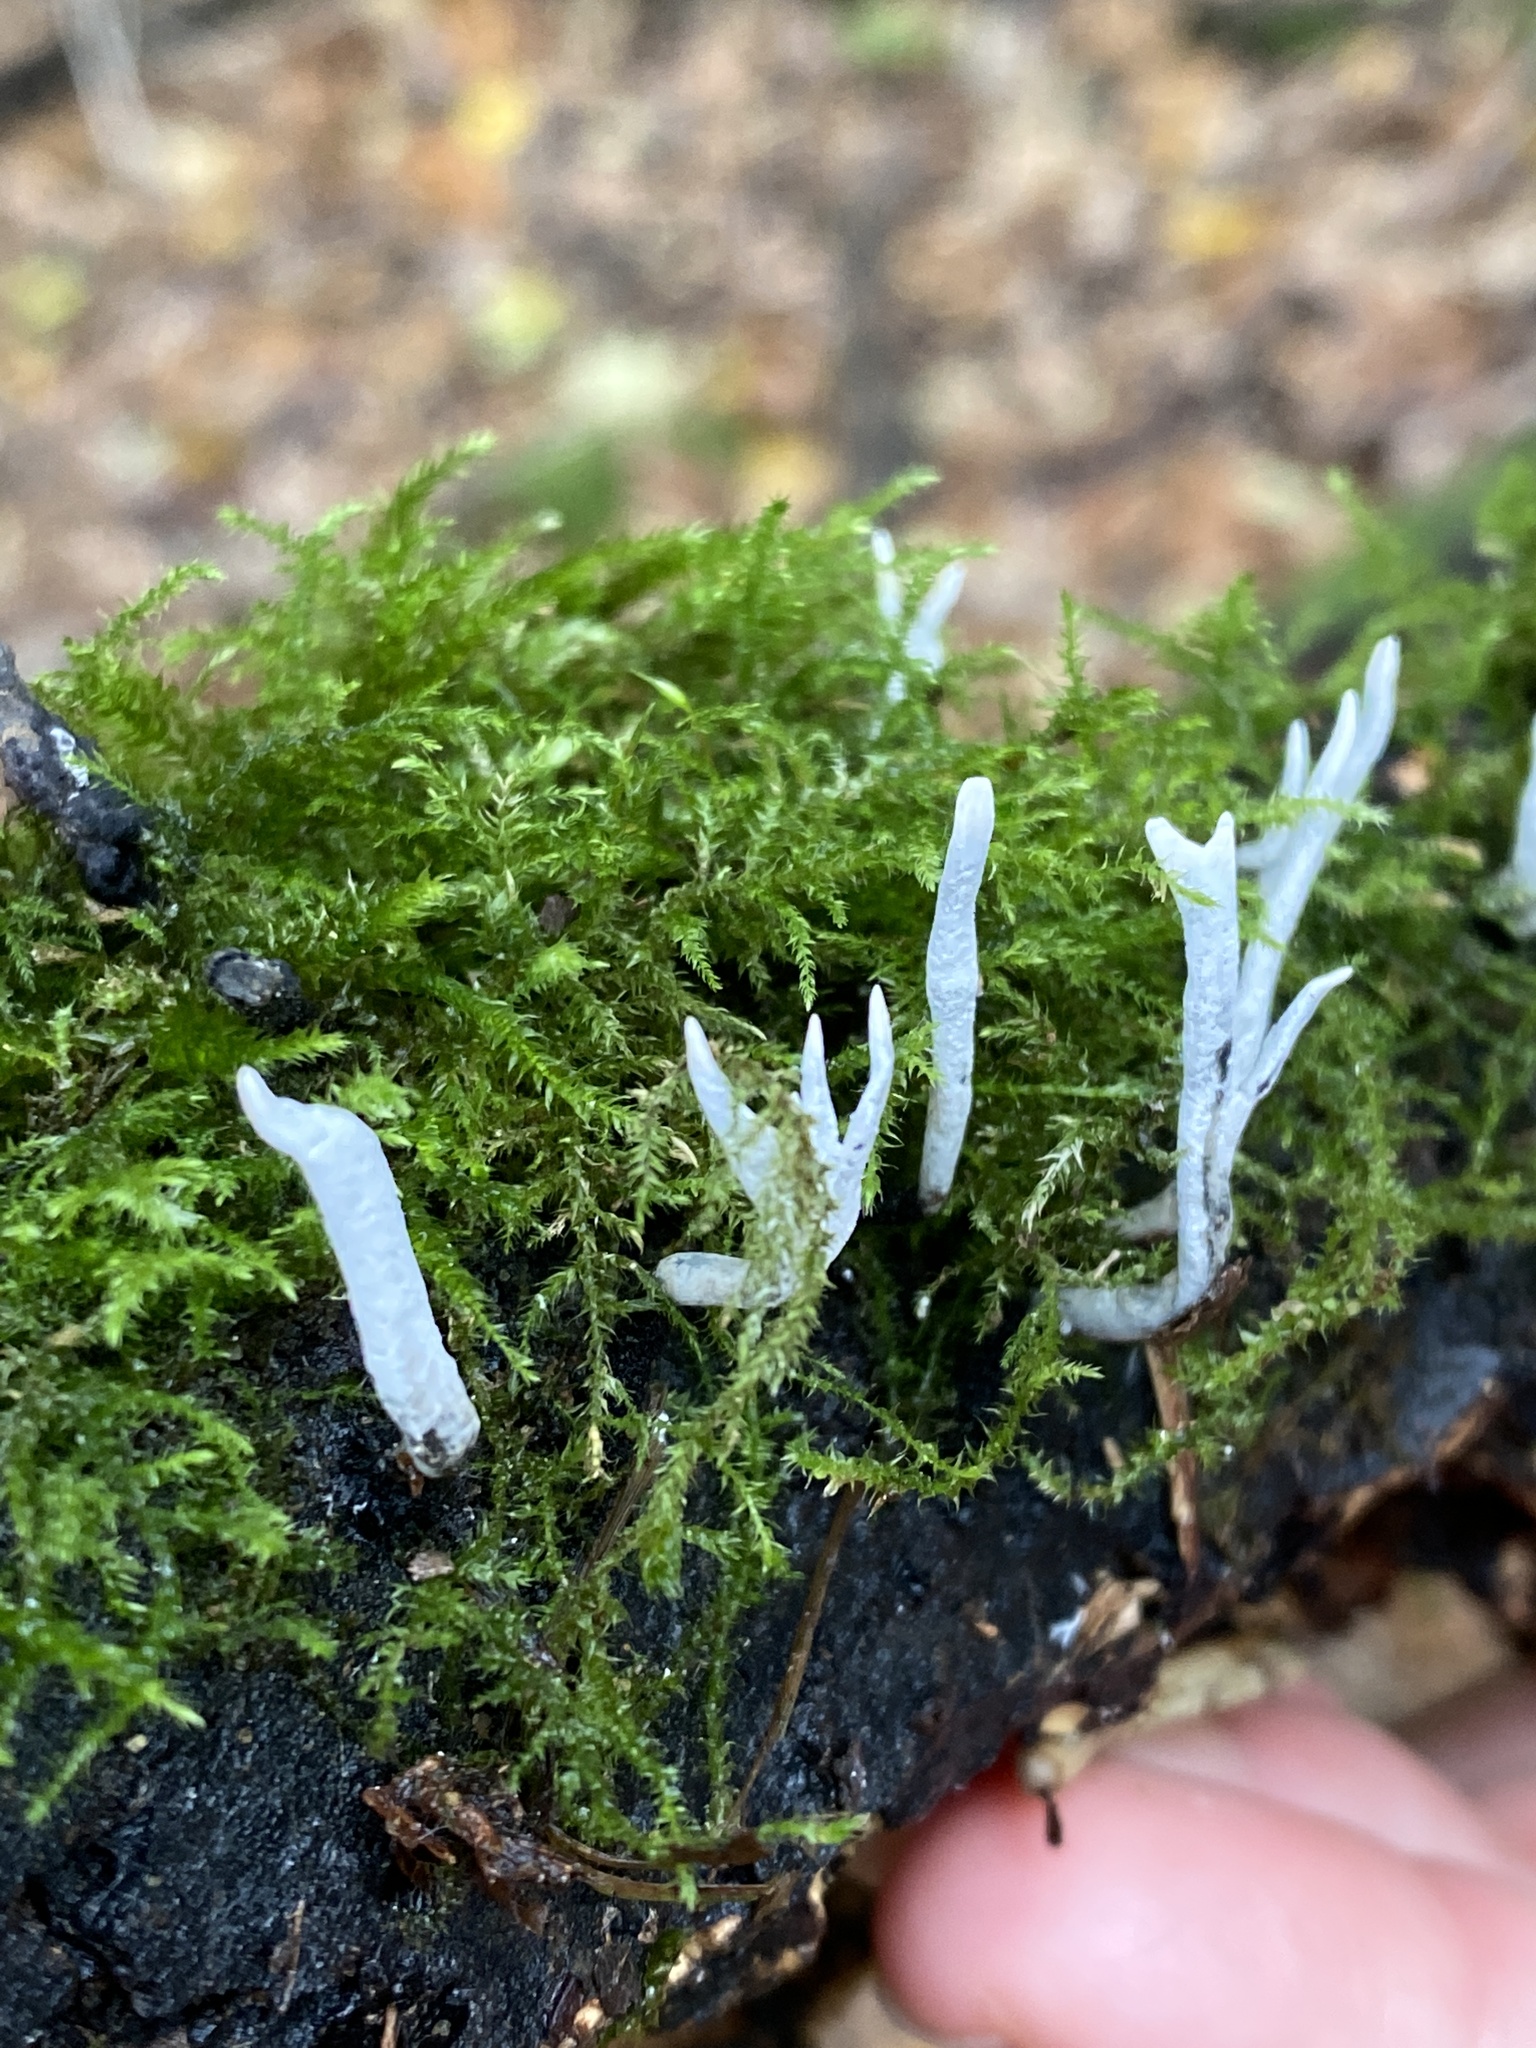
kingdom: Fungi
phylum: Ascomycota
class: Sordariomycetes
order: Xylariales
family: Xylariaceae
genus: Xylaria
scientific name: Xylaria hypoxylon
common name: Candle-snuff fungus
